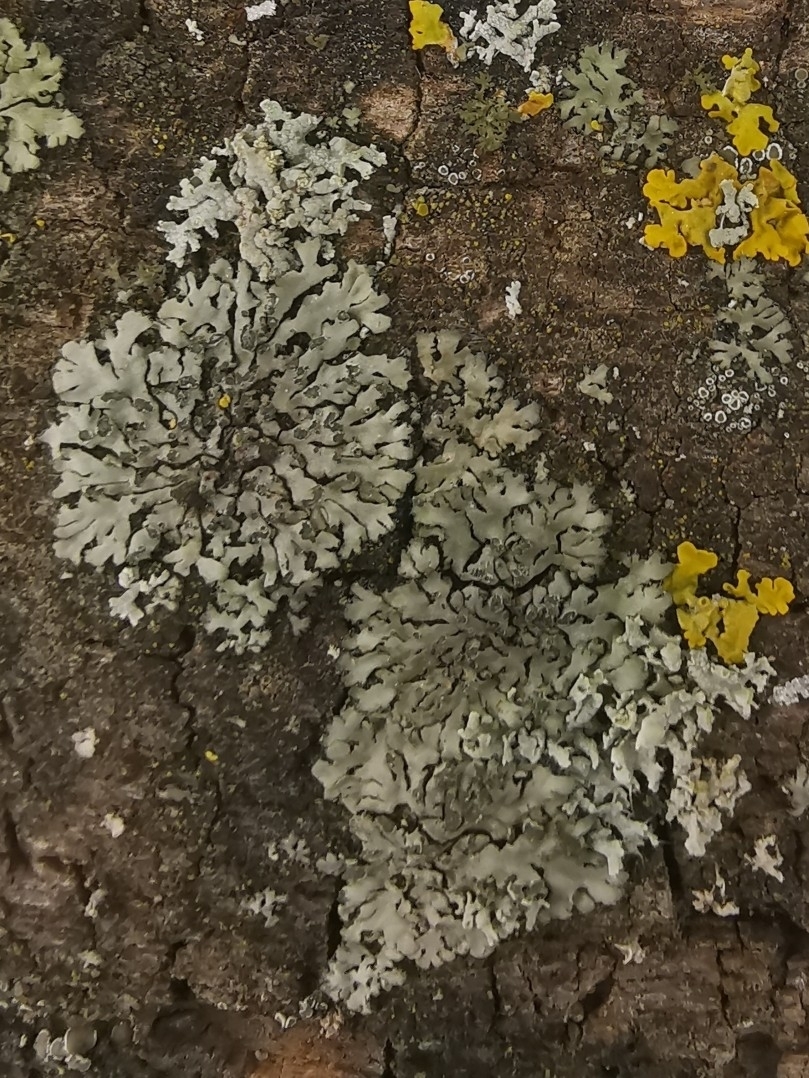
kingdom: Fungi
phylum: Ascomycota
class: Lecanoromycetes
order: Caliciales
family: Physciaceae
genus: Phaeophyscia
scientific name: Phaeophyscia orbicularis
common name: Mealy shadow lichen
